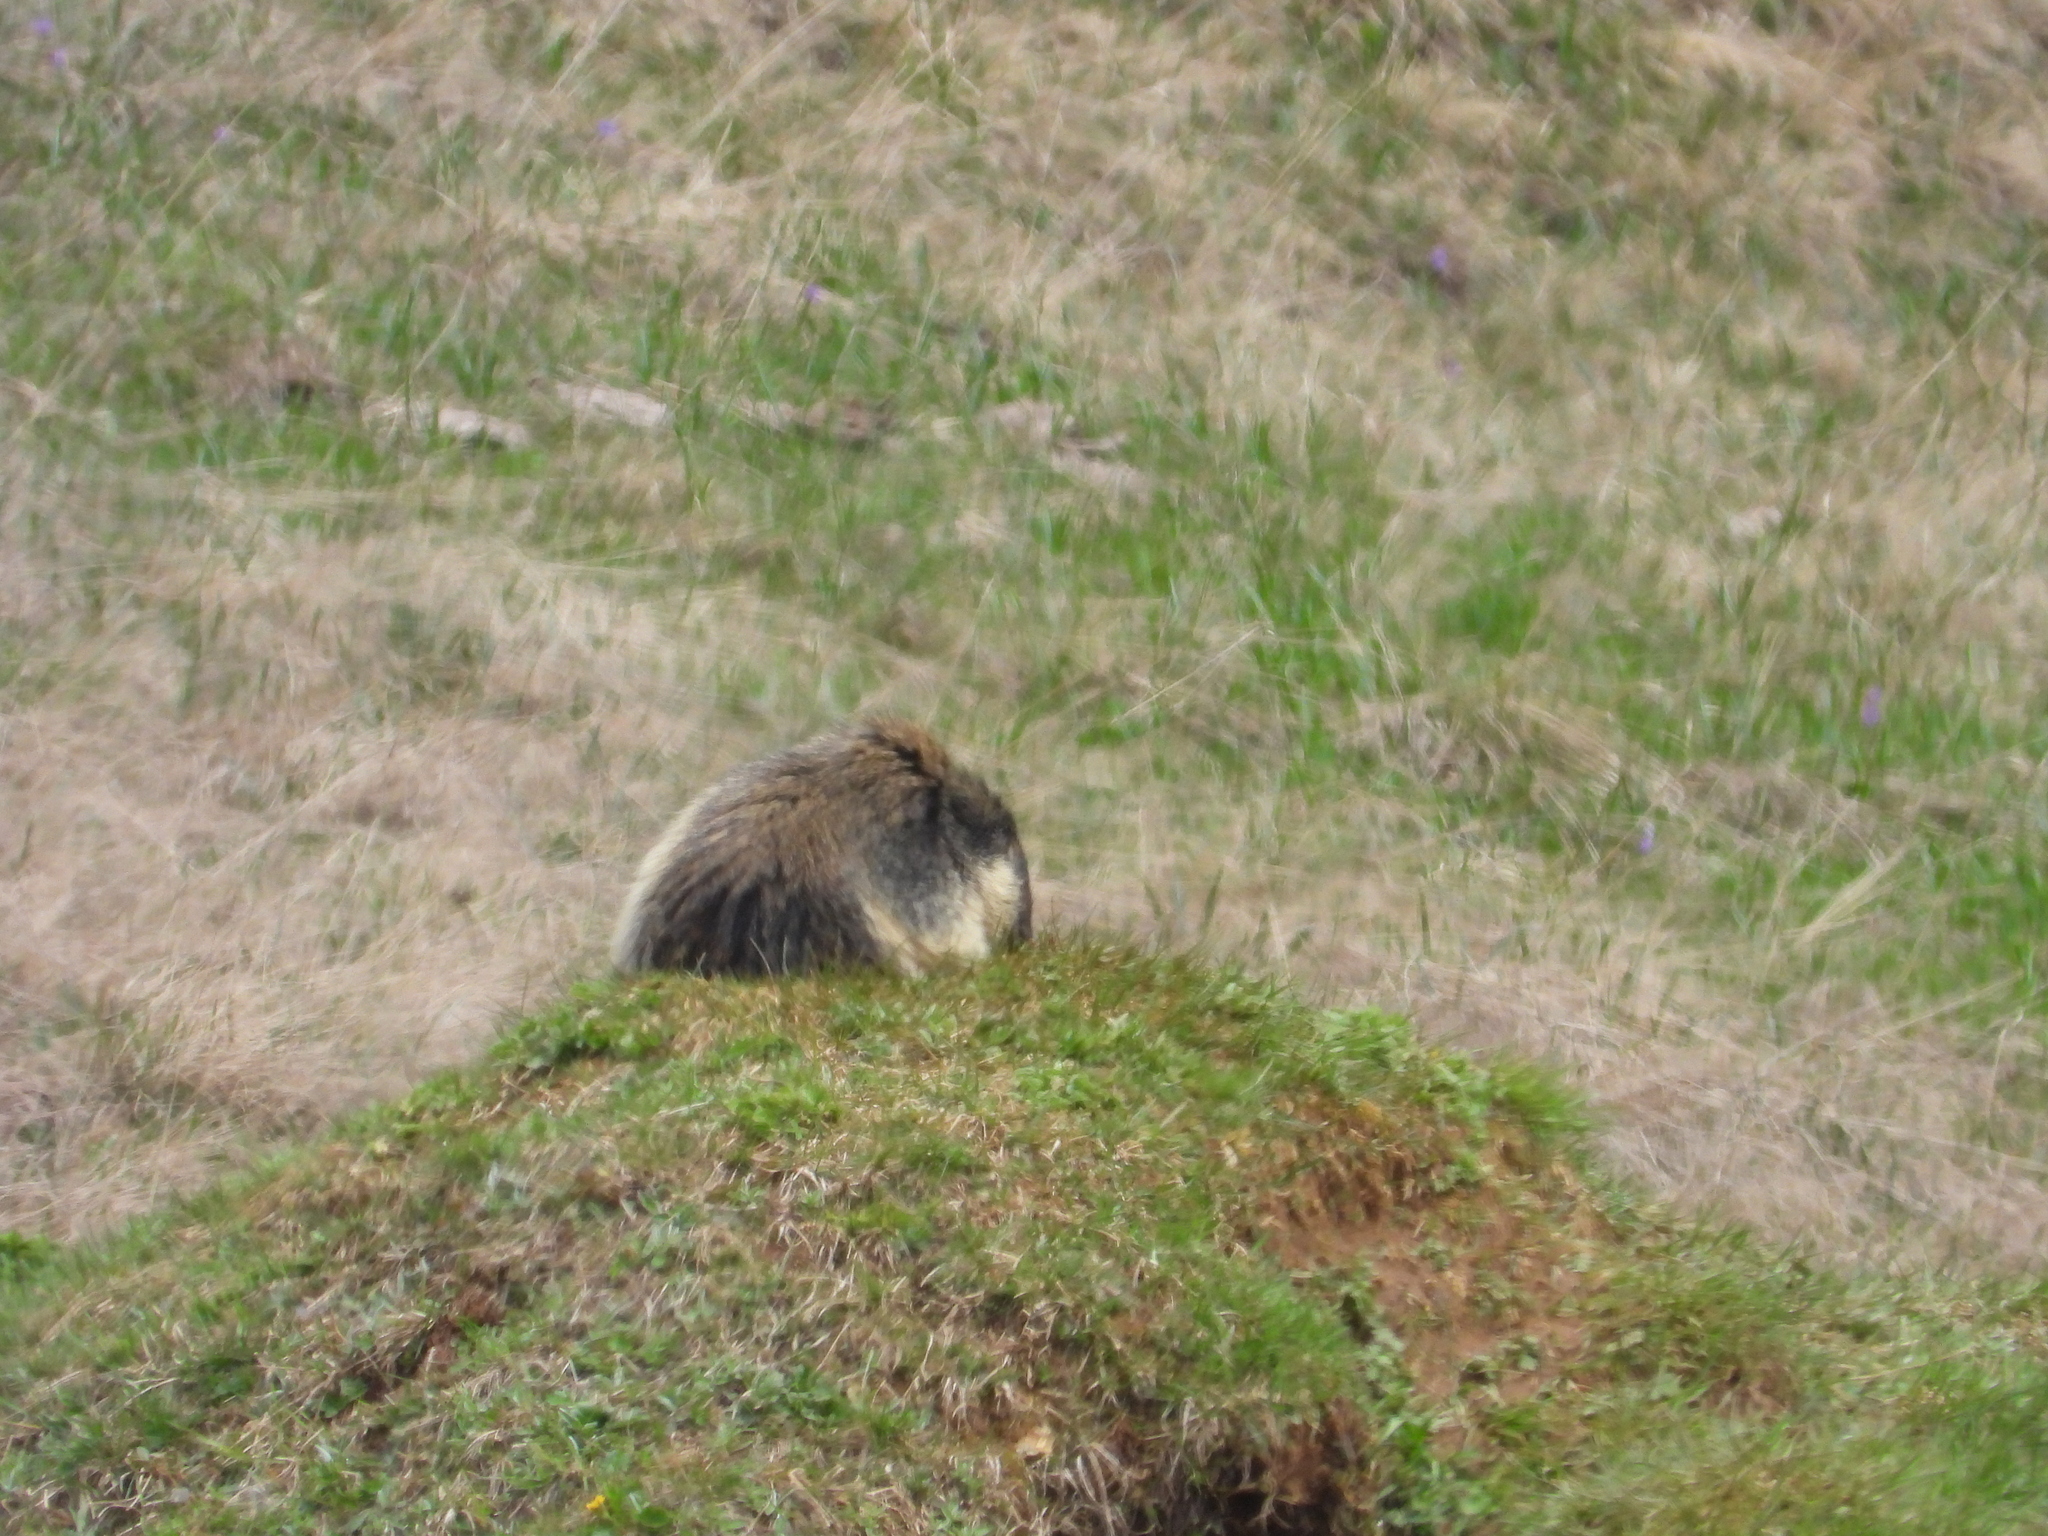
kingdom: Animalia
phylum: Chordata
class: Mammalia
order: Rodentia
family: Sciuridae
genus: Marmota
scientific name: Marmota marmota
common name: Alpine marmot
